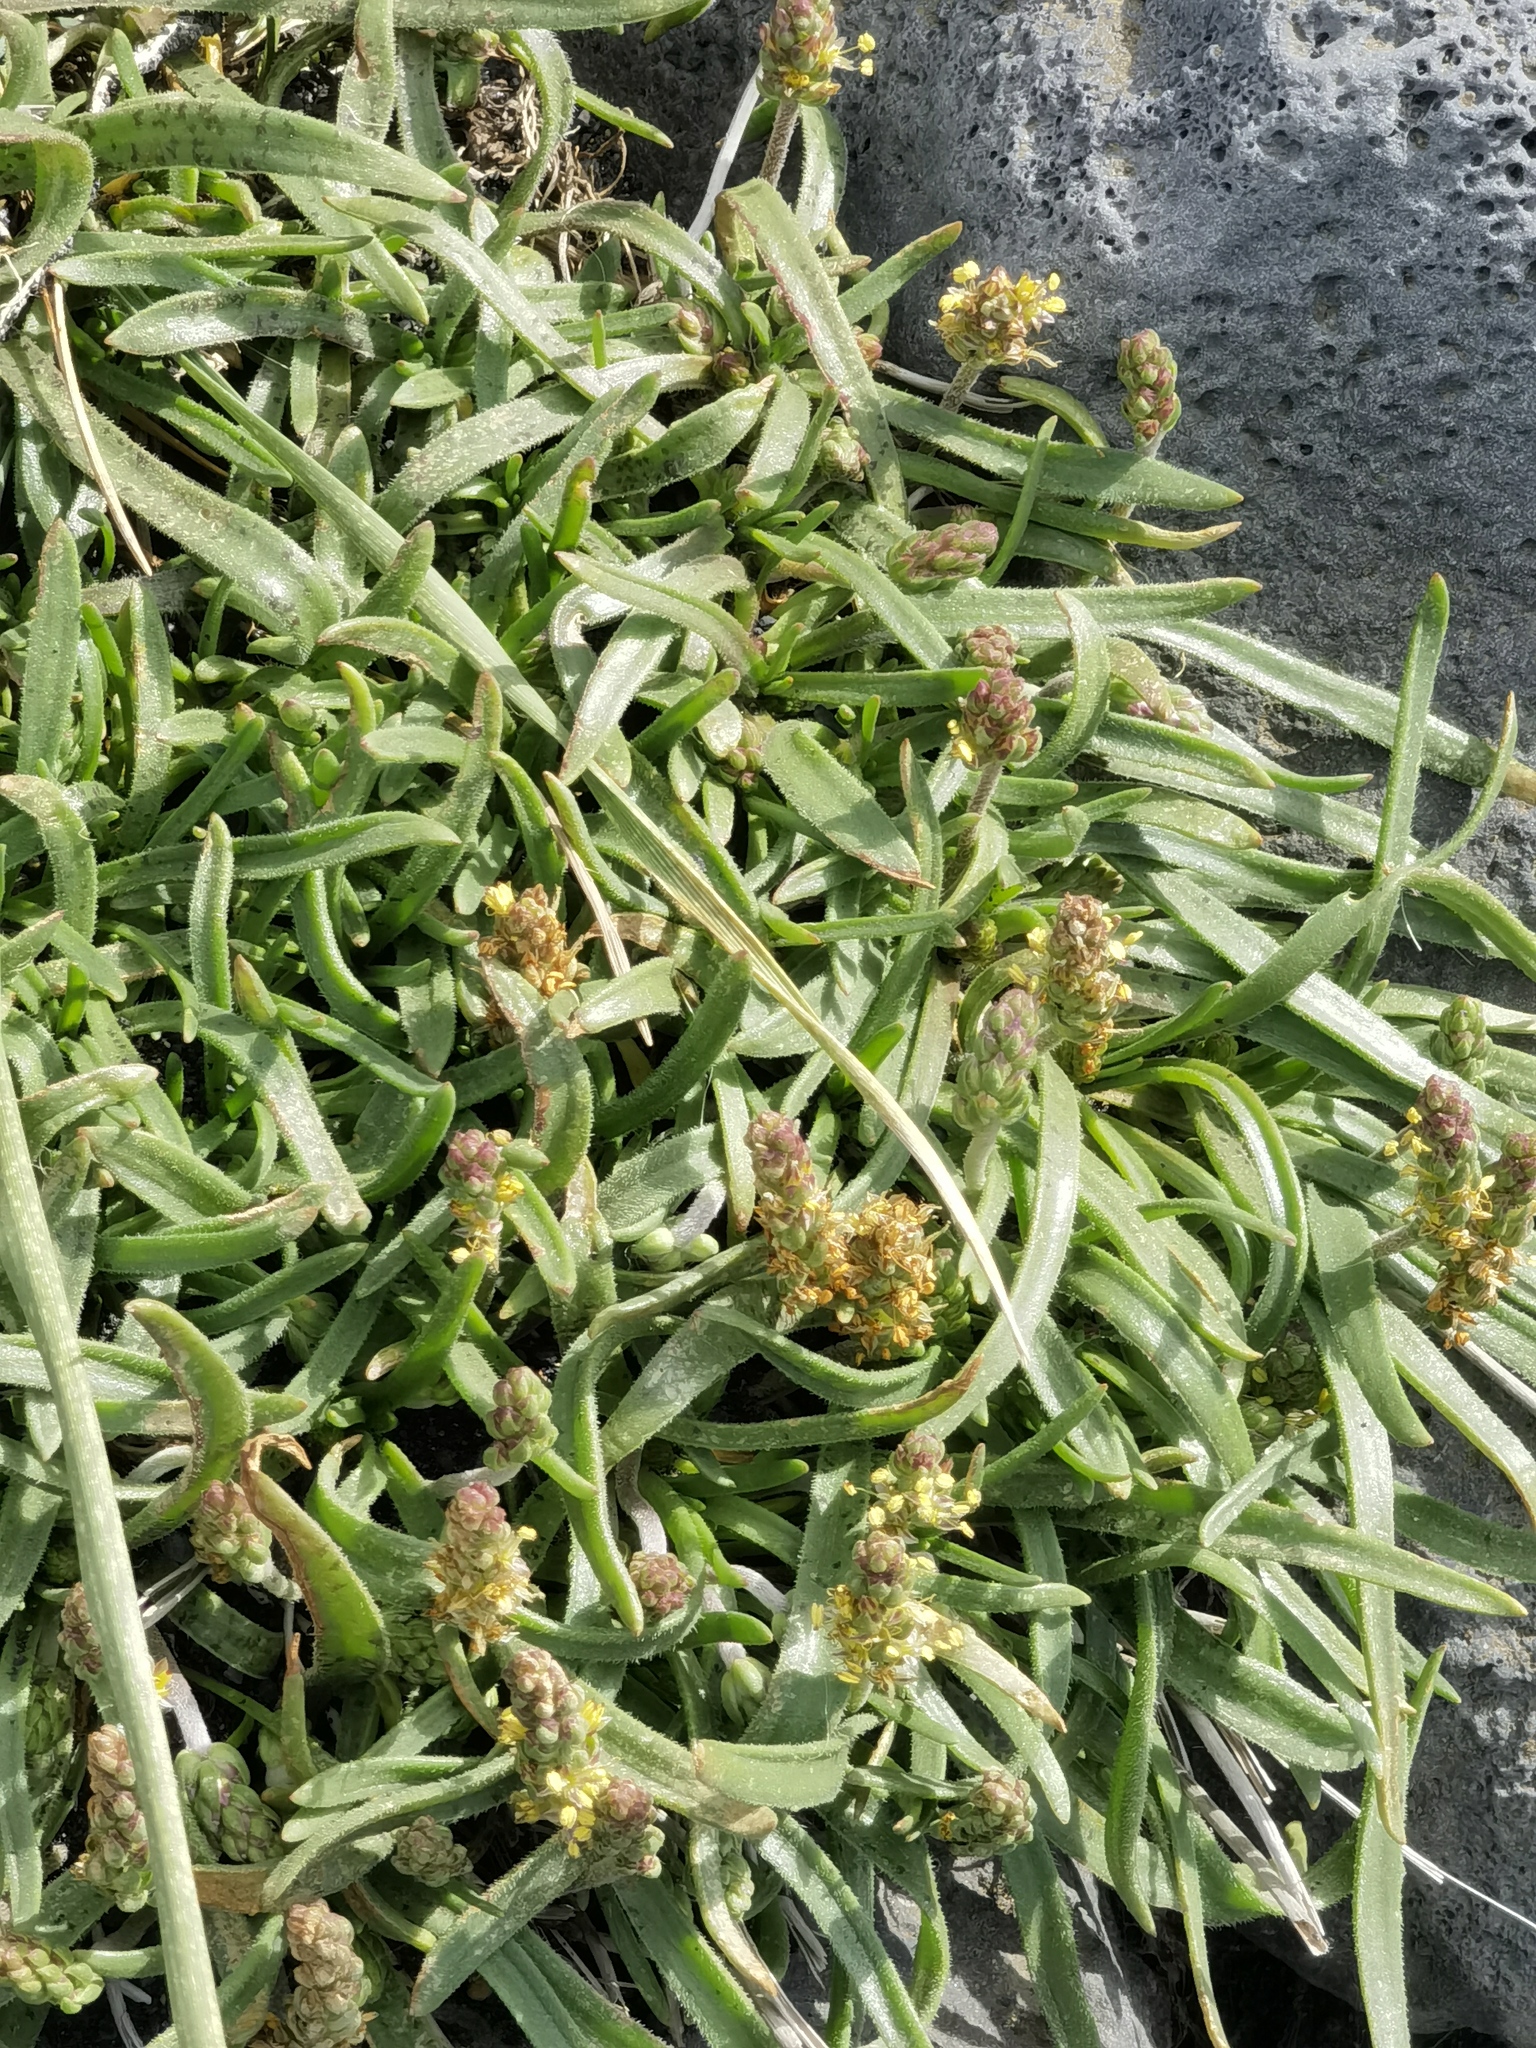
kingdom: Plantae
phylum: Tracheophyta
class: Magnoliopsida
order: Lamiales
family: Plantaginaceae
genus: Plantago
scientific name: Plantago maritima
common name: Sea plantain
